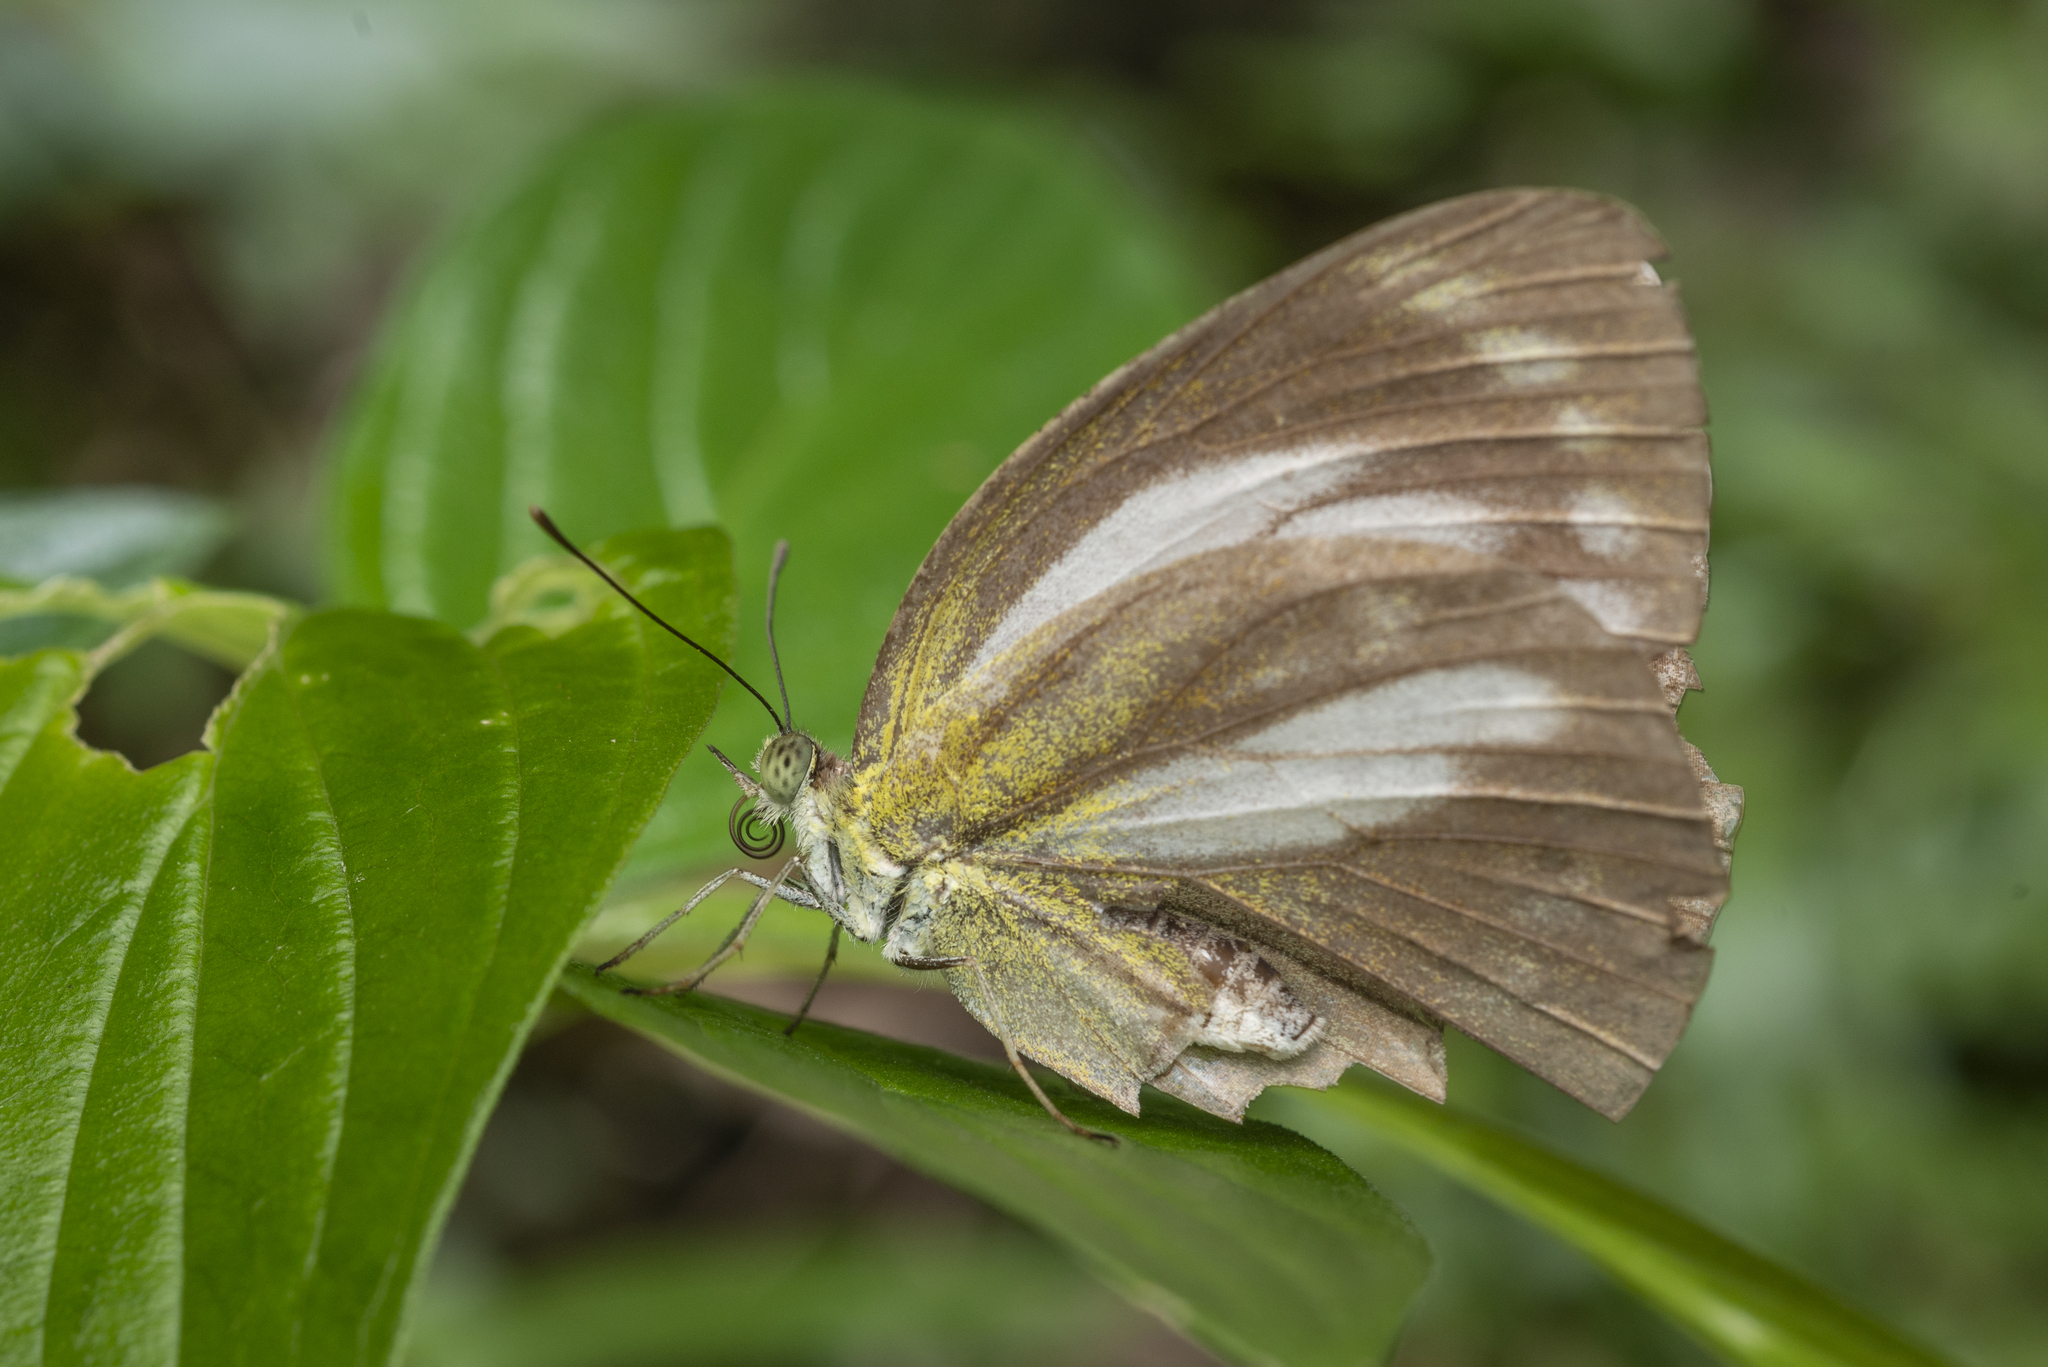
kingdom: Animalia
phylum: Arthropoda
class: Insecta
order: Lepidoptera
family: Pieridae
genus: Cepora
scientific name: Cepora nadina
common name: Lesser gull
